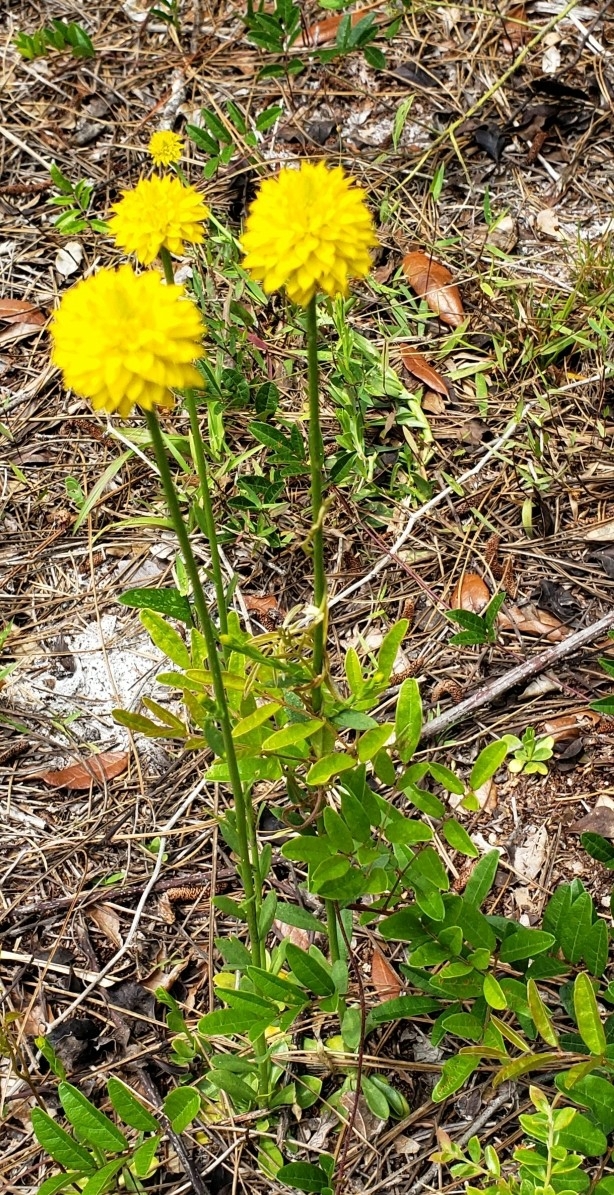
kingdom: Plantae
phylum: Tracheophyta
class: Magnoliopsida
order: Fabales
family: Polygalaceae
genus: Polygala
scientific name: Polygala rugelii
